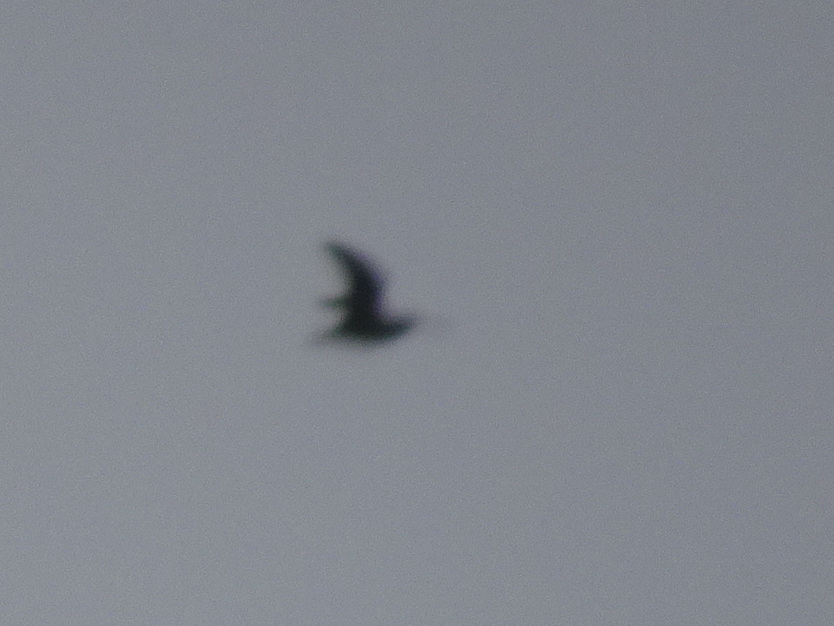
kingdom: Animalia
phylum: Chordata
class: Aves
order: Charadriiformes
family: Scolopacidae
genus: Gallinago
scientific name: Gallinago delicata
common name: Wilson's snipe
